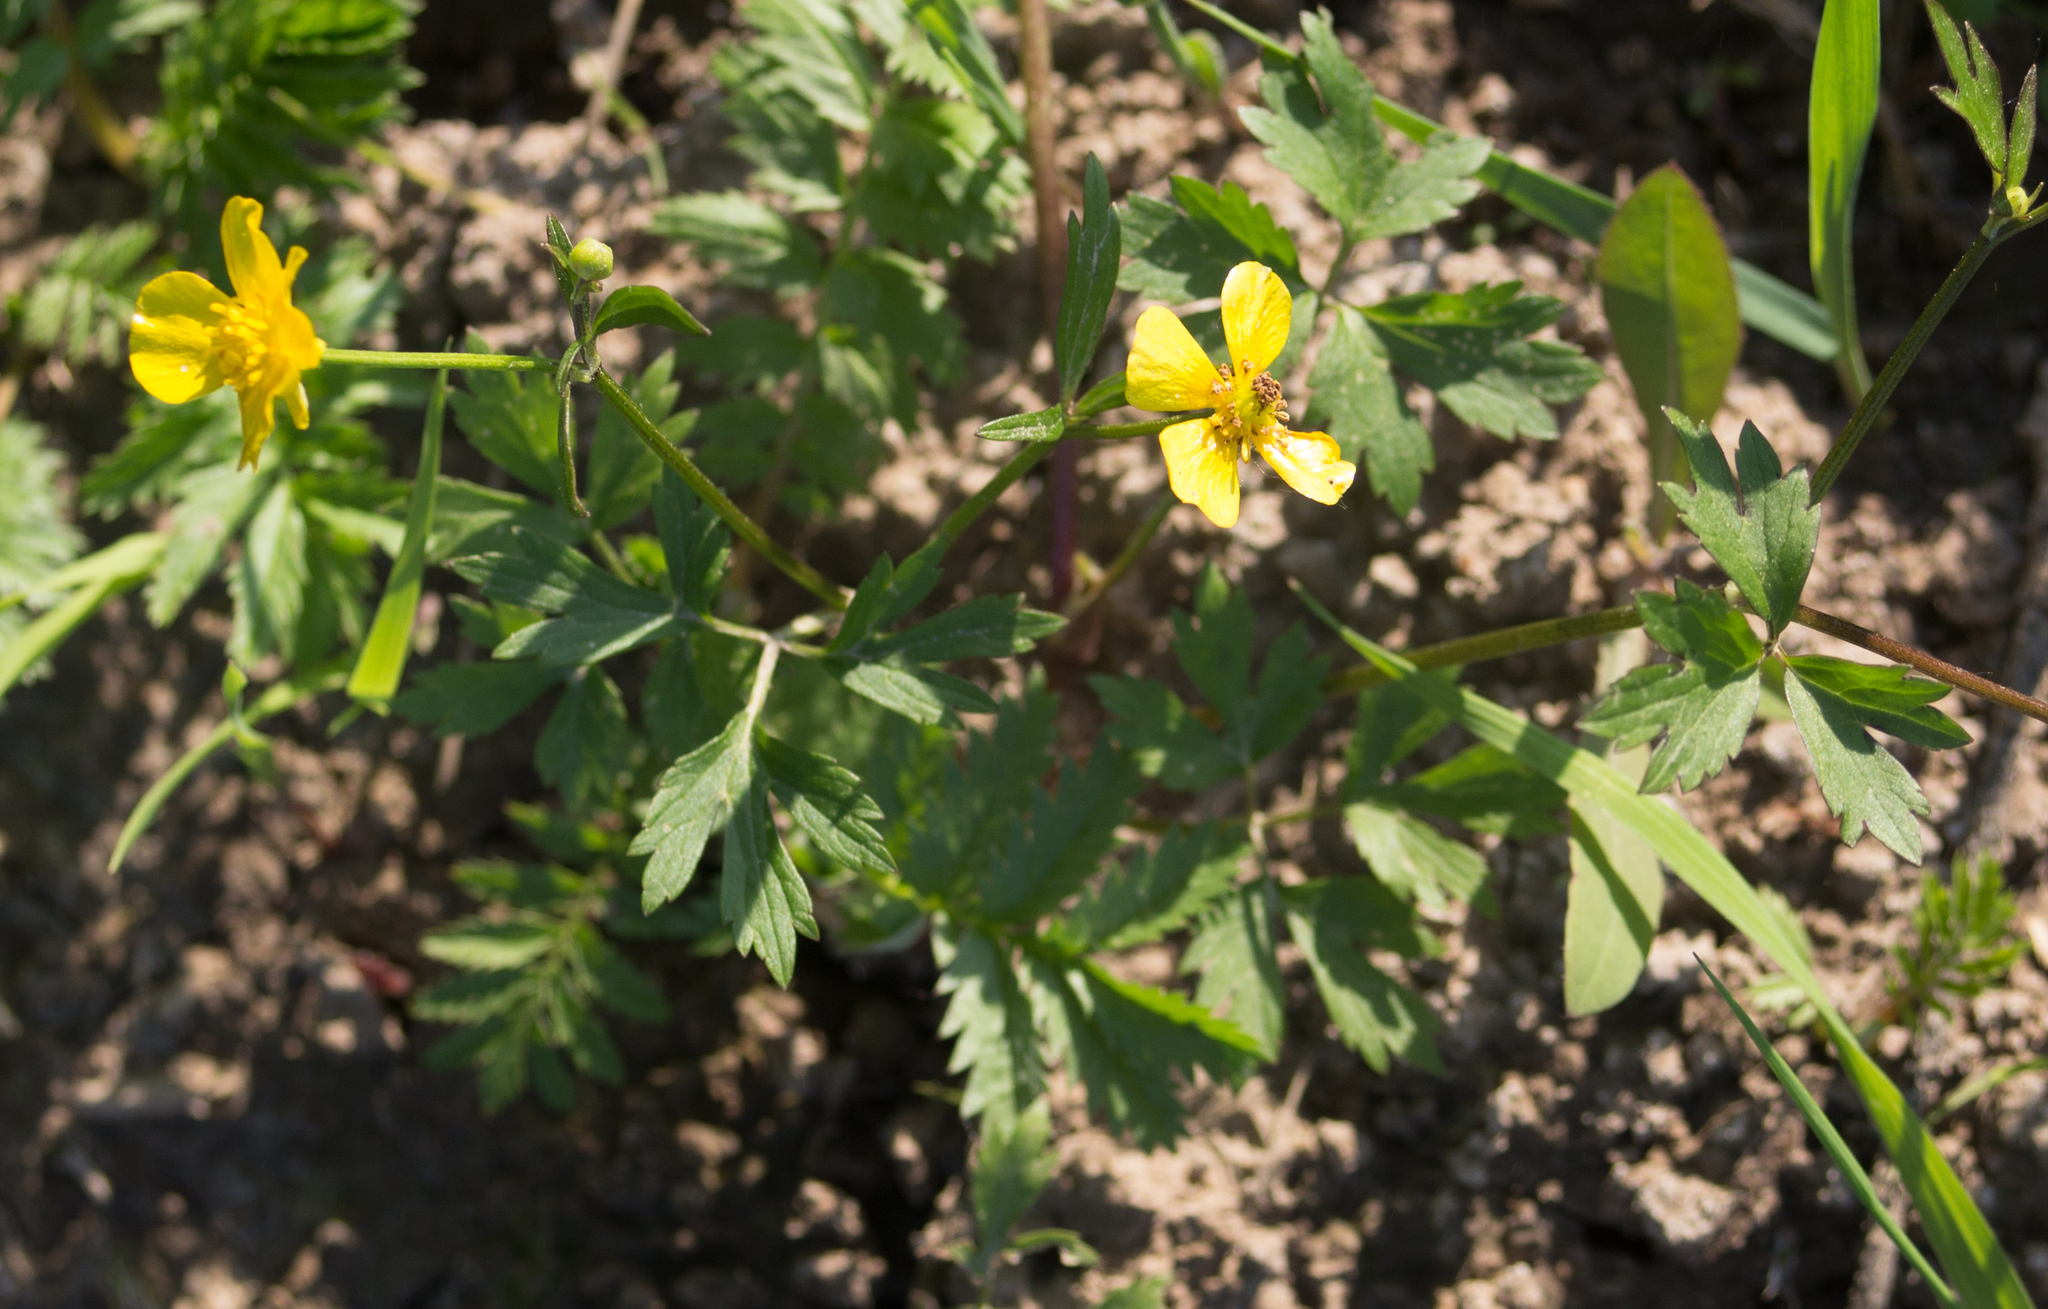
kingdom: Plantae
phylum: Tracheophyta
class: Magnoliopsida
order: Ranunculales
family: Ranunculaceae
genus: Ranunculus
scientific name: Ranunculus repens
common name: Creeping buttercup
